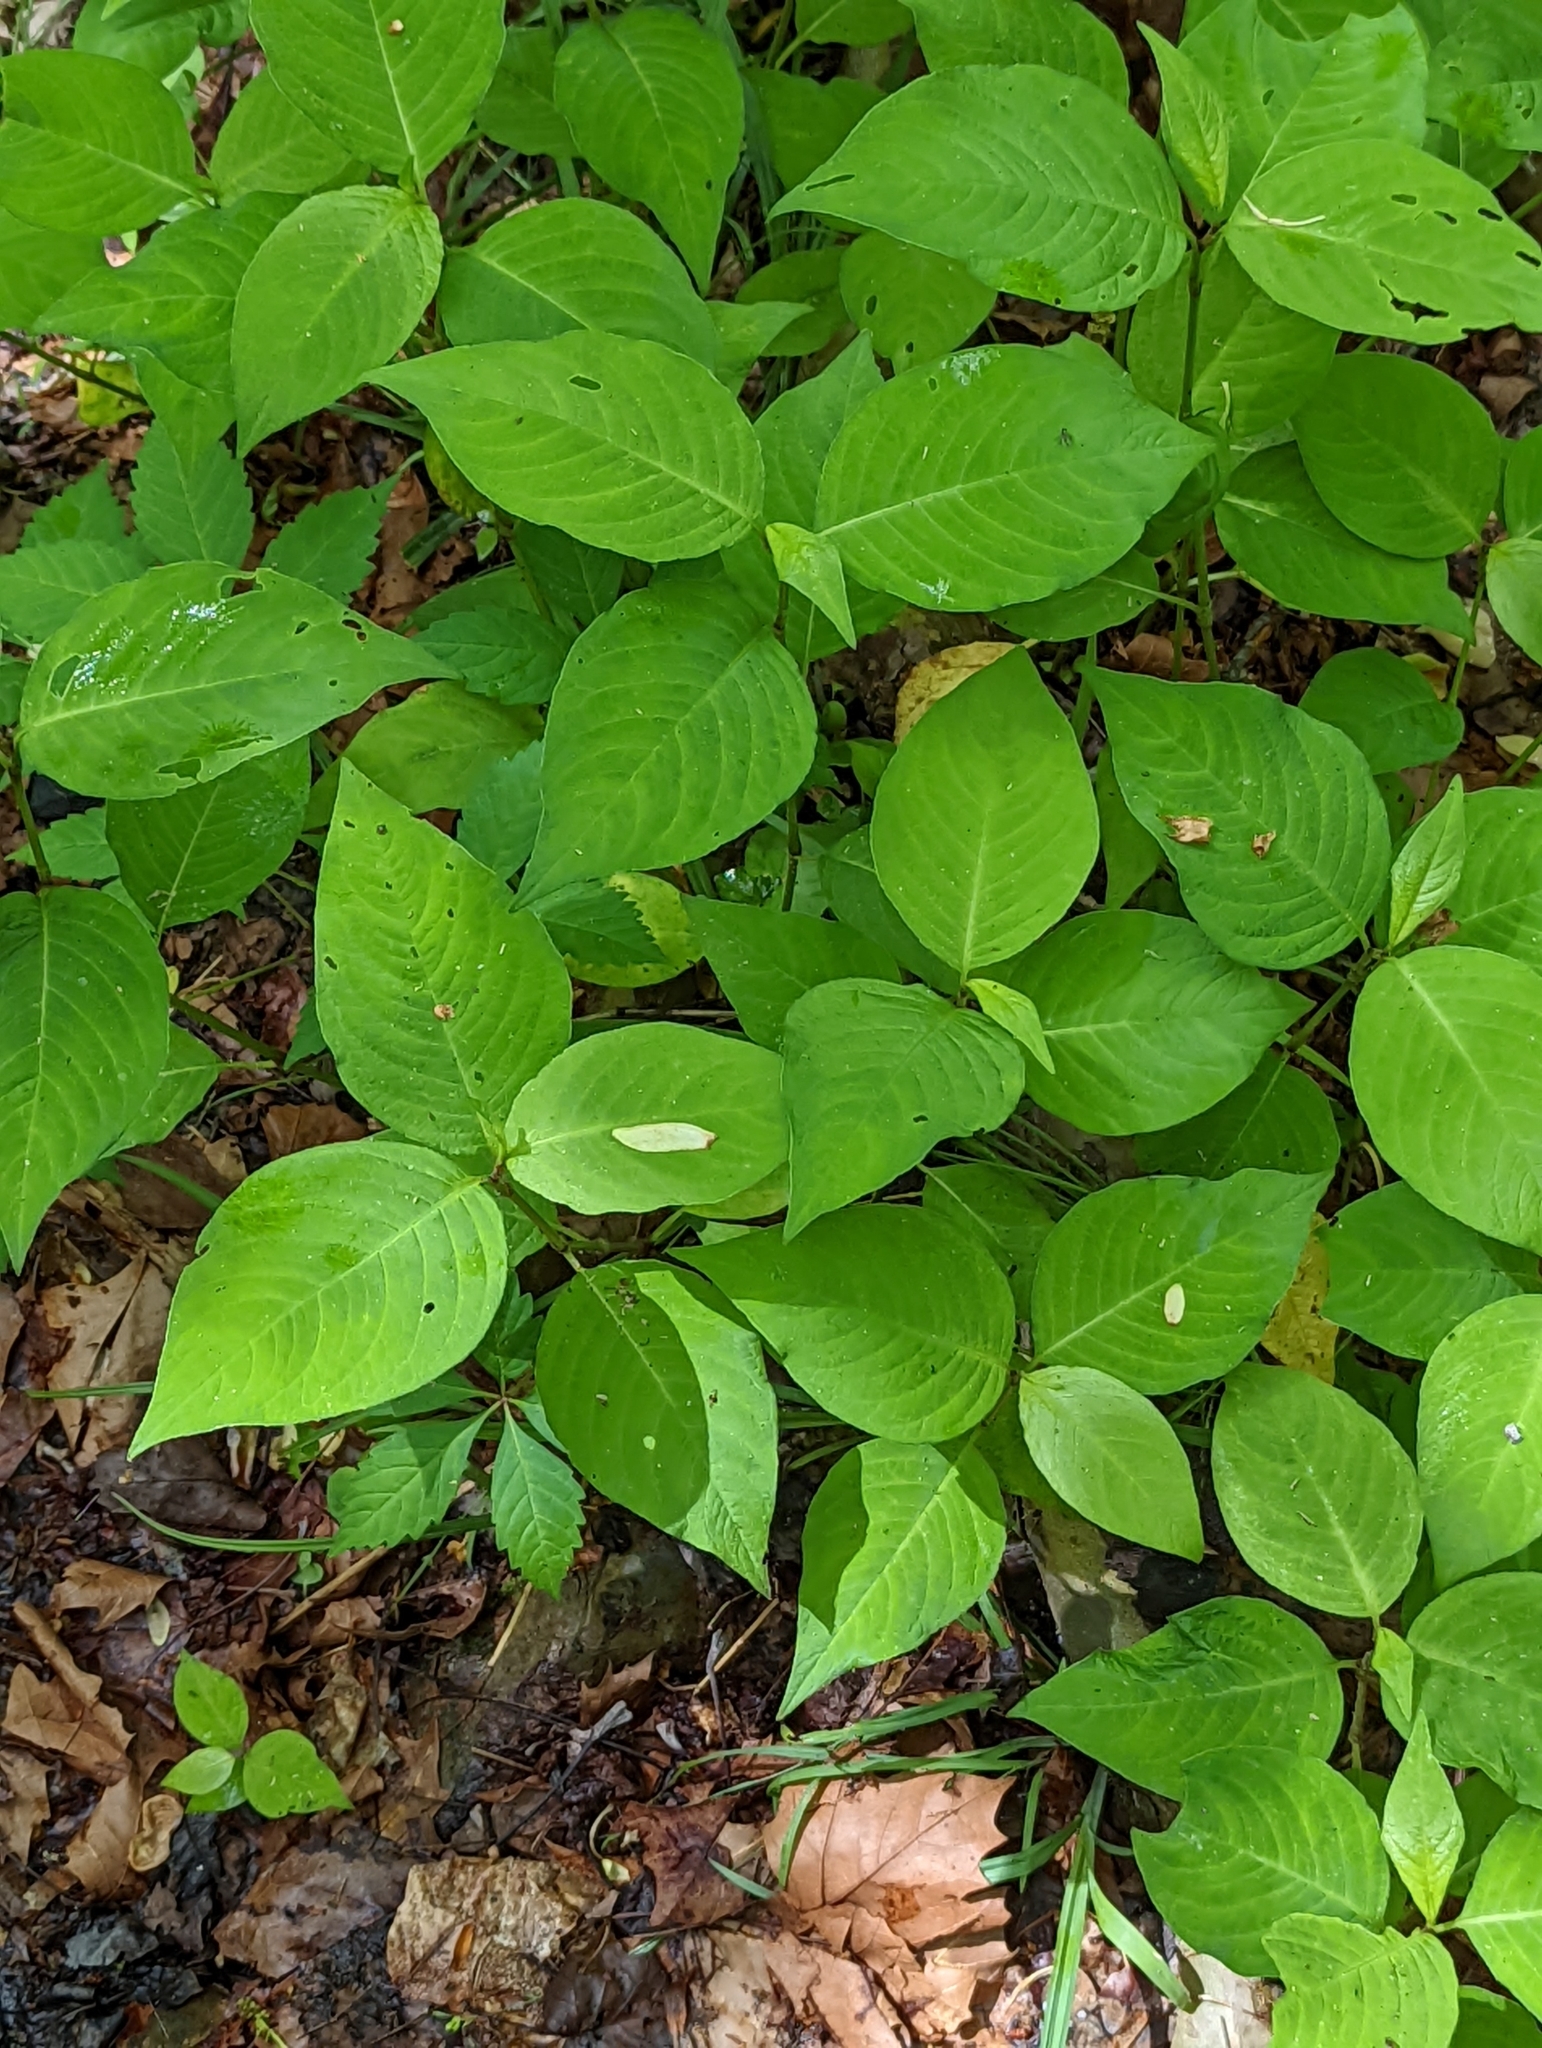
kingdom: Plantae
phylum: Tracheophyta
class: Magnoliopsida
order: Caryophyllales
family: Polygonaceae
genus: Persicaria
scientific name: Persicaria virginiana
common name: Jumpseed
